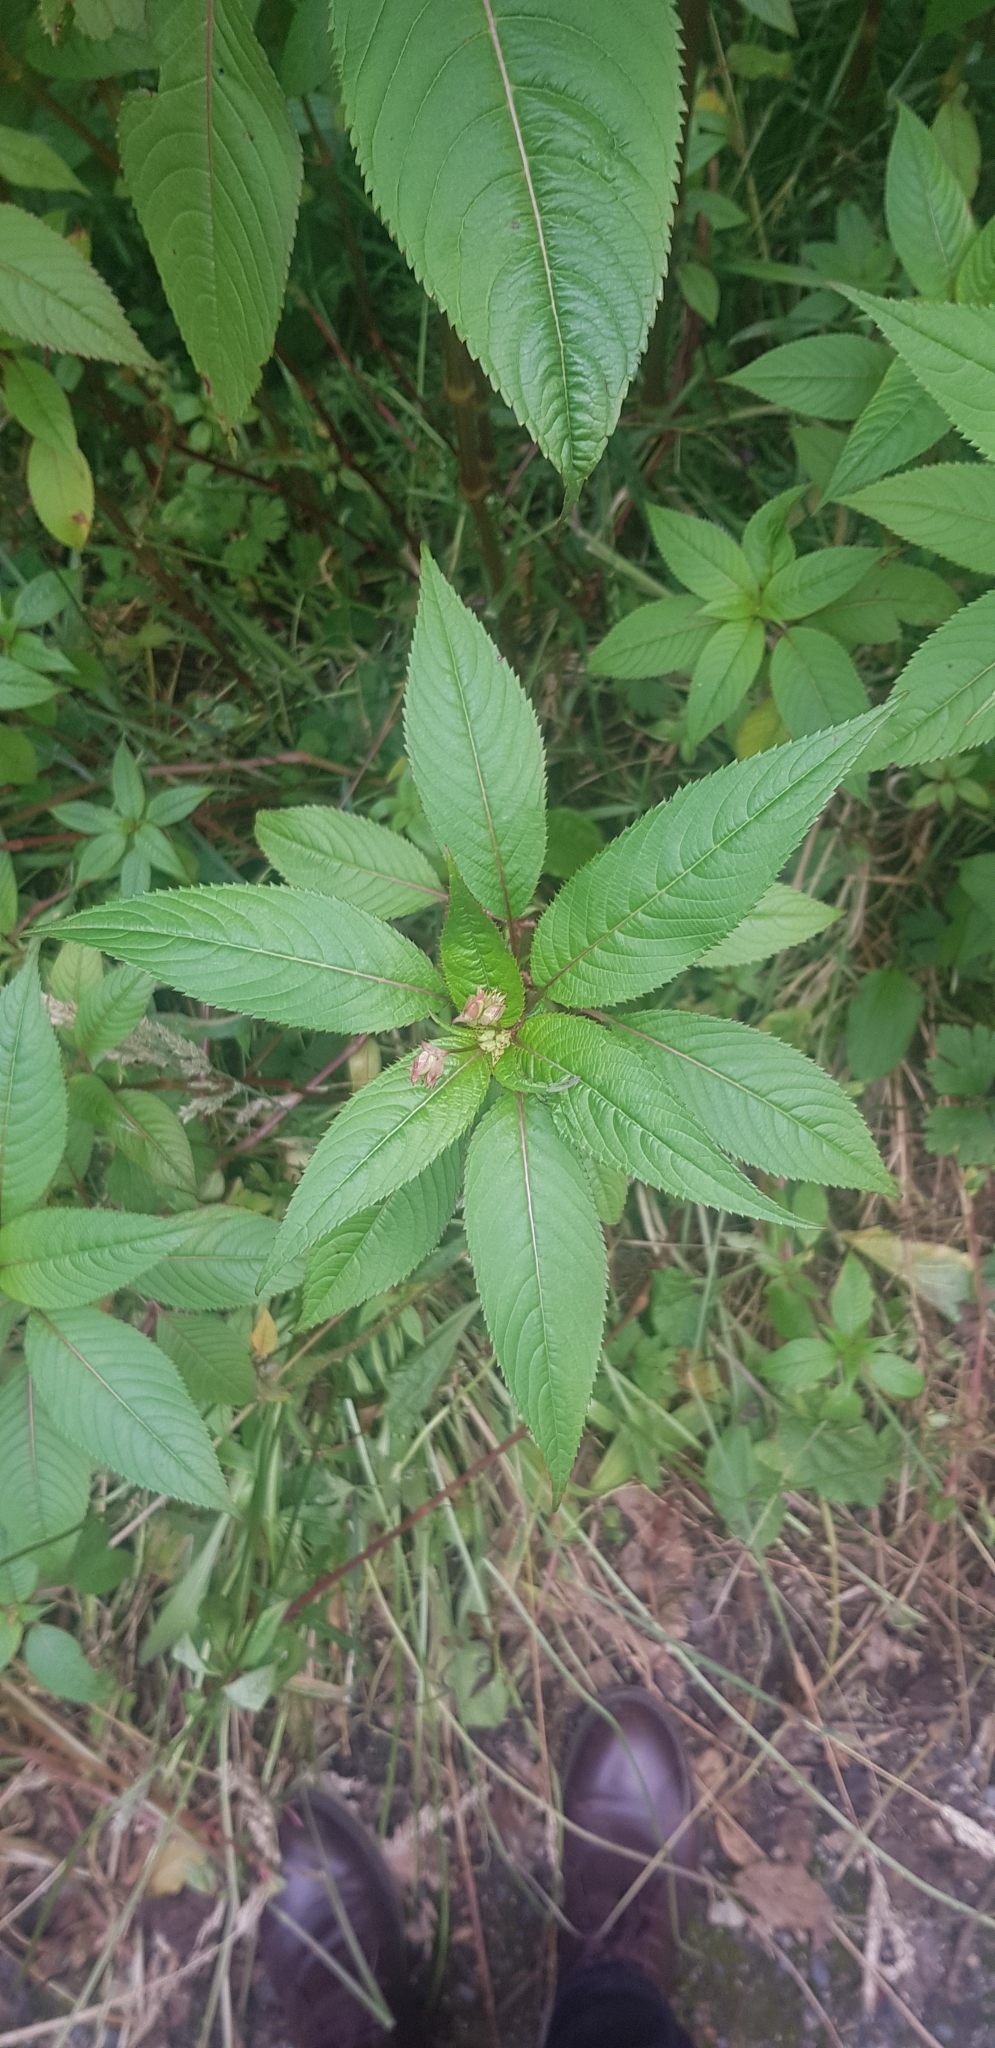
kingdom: Plantae
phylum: Tracheophyta
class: Magnoliopsida
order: Ericales
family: Balsaminaceae
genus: Impatiens
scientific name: Impatiens glandulifera
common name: Himalayan balsam
